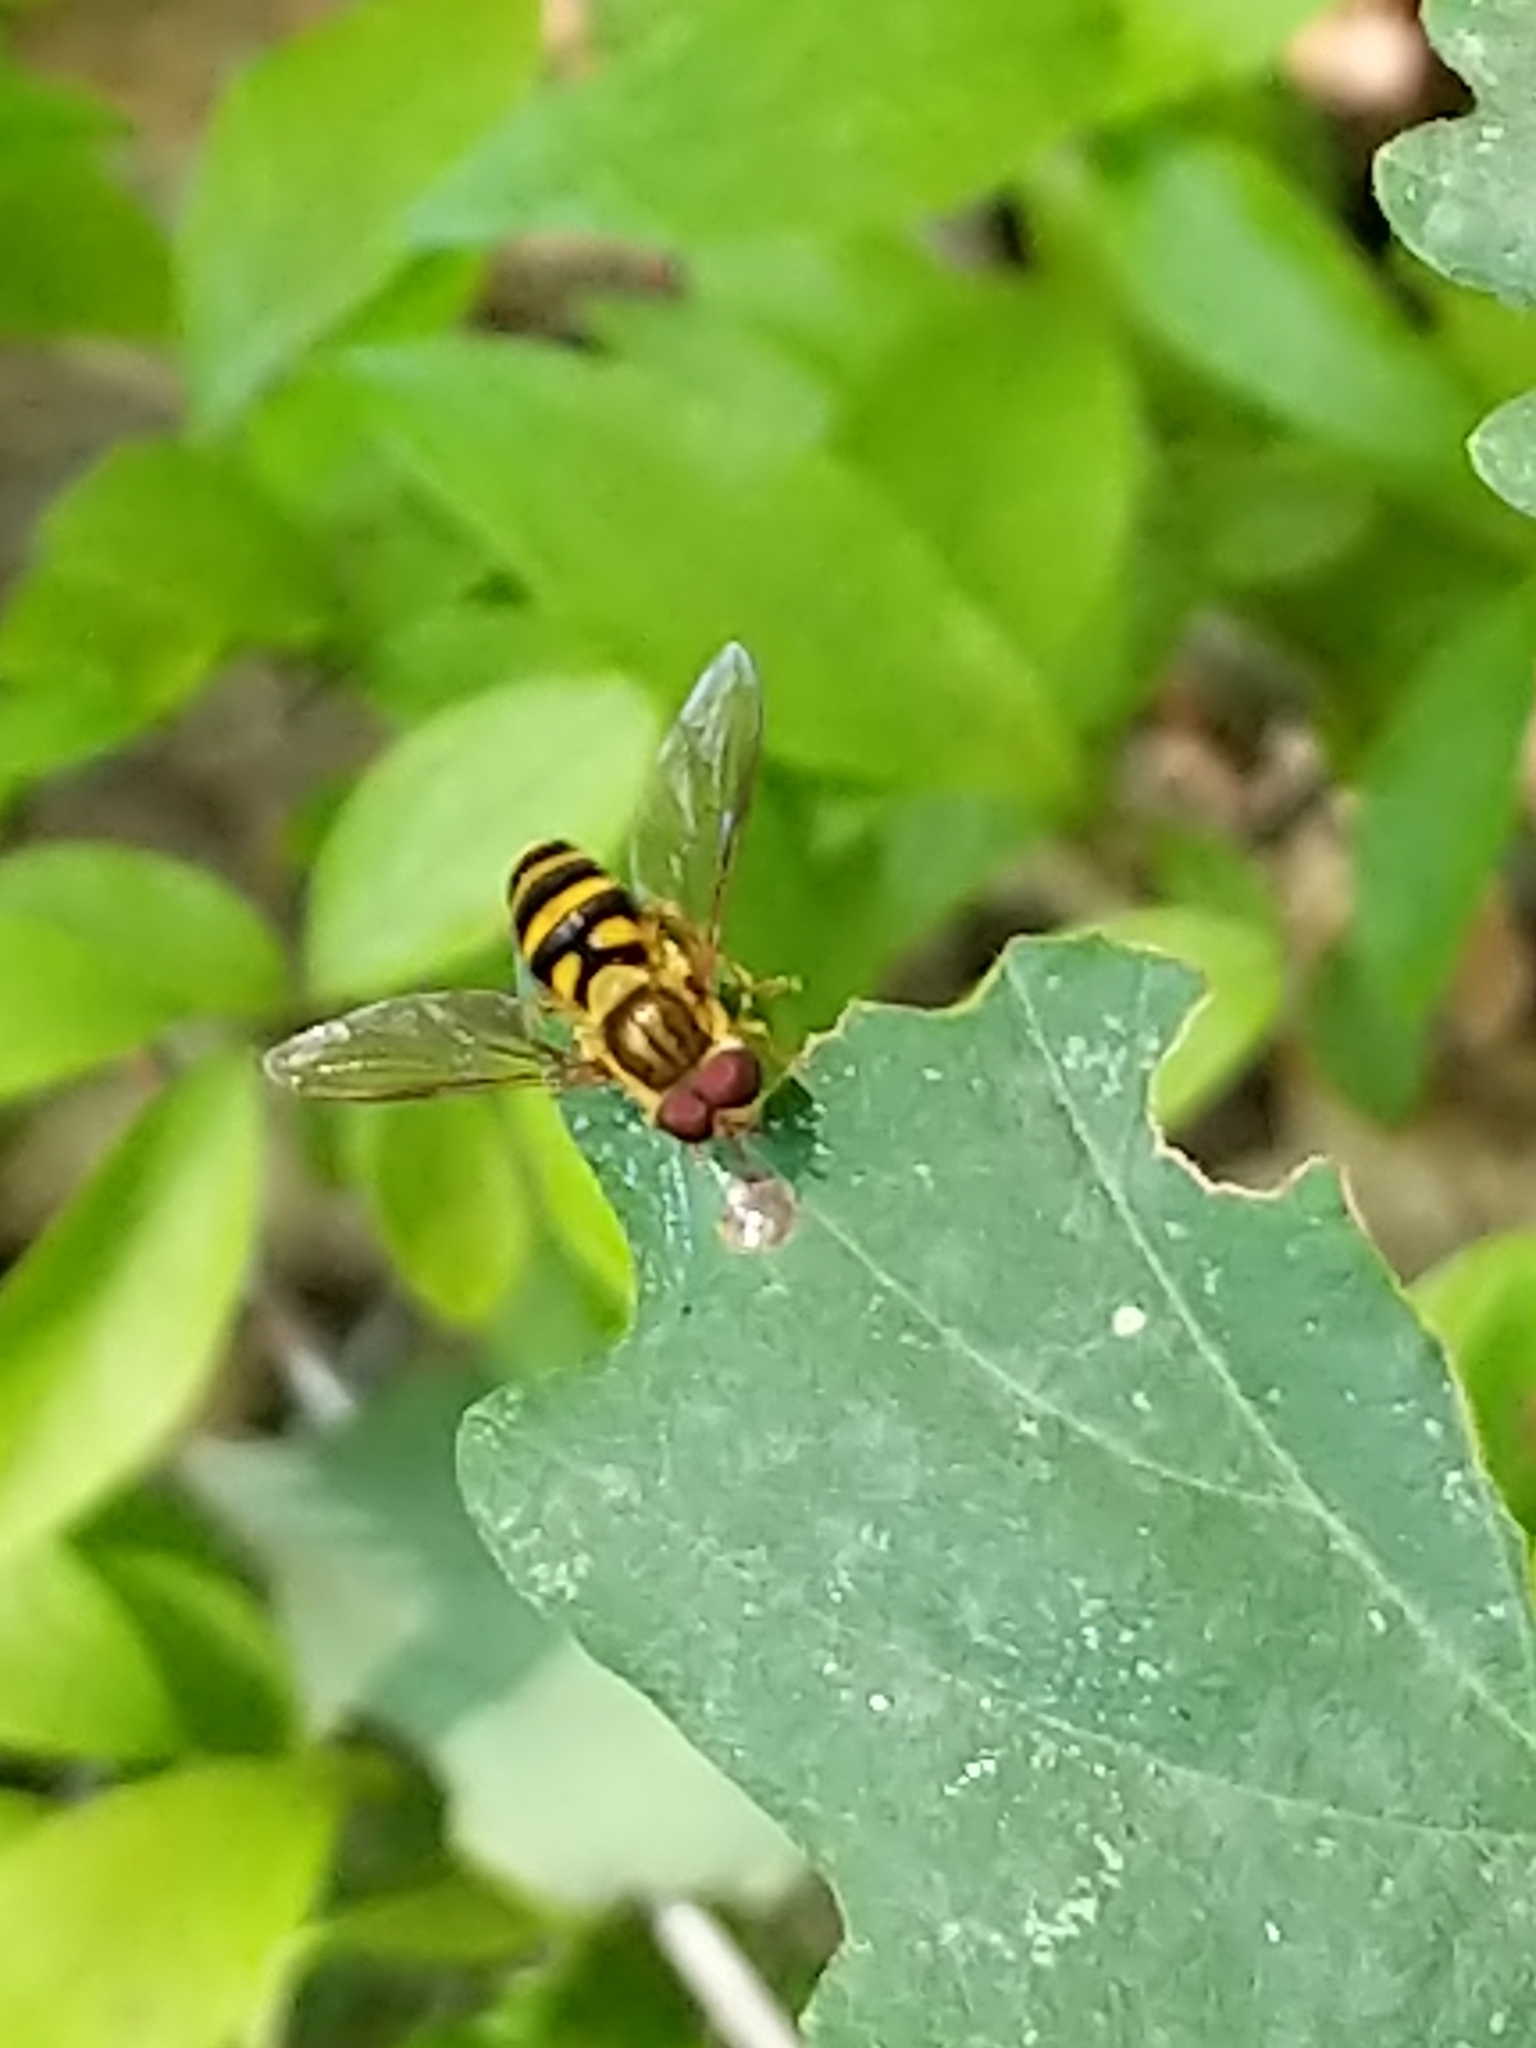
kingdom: Animalia
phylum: Arthropoda
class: Insecta
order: Diptera
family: Syrphidae
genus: Syrphus
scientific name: Syrphus
